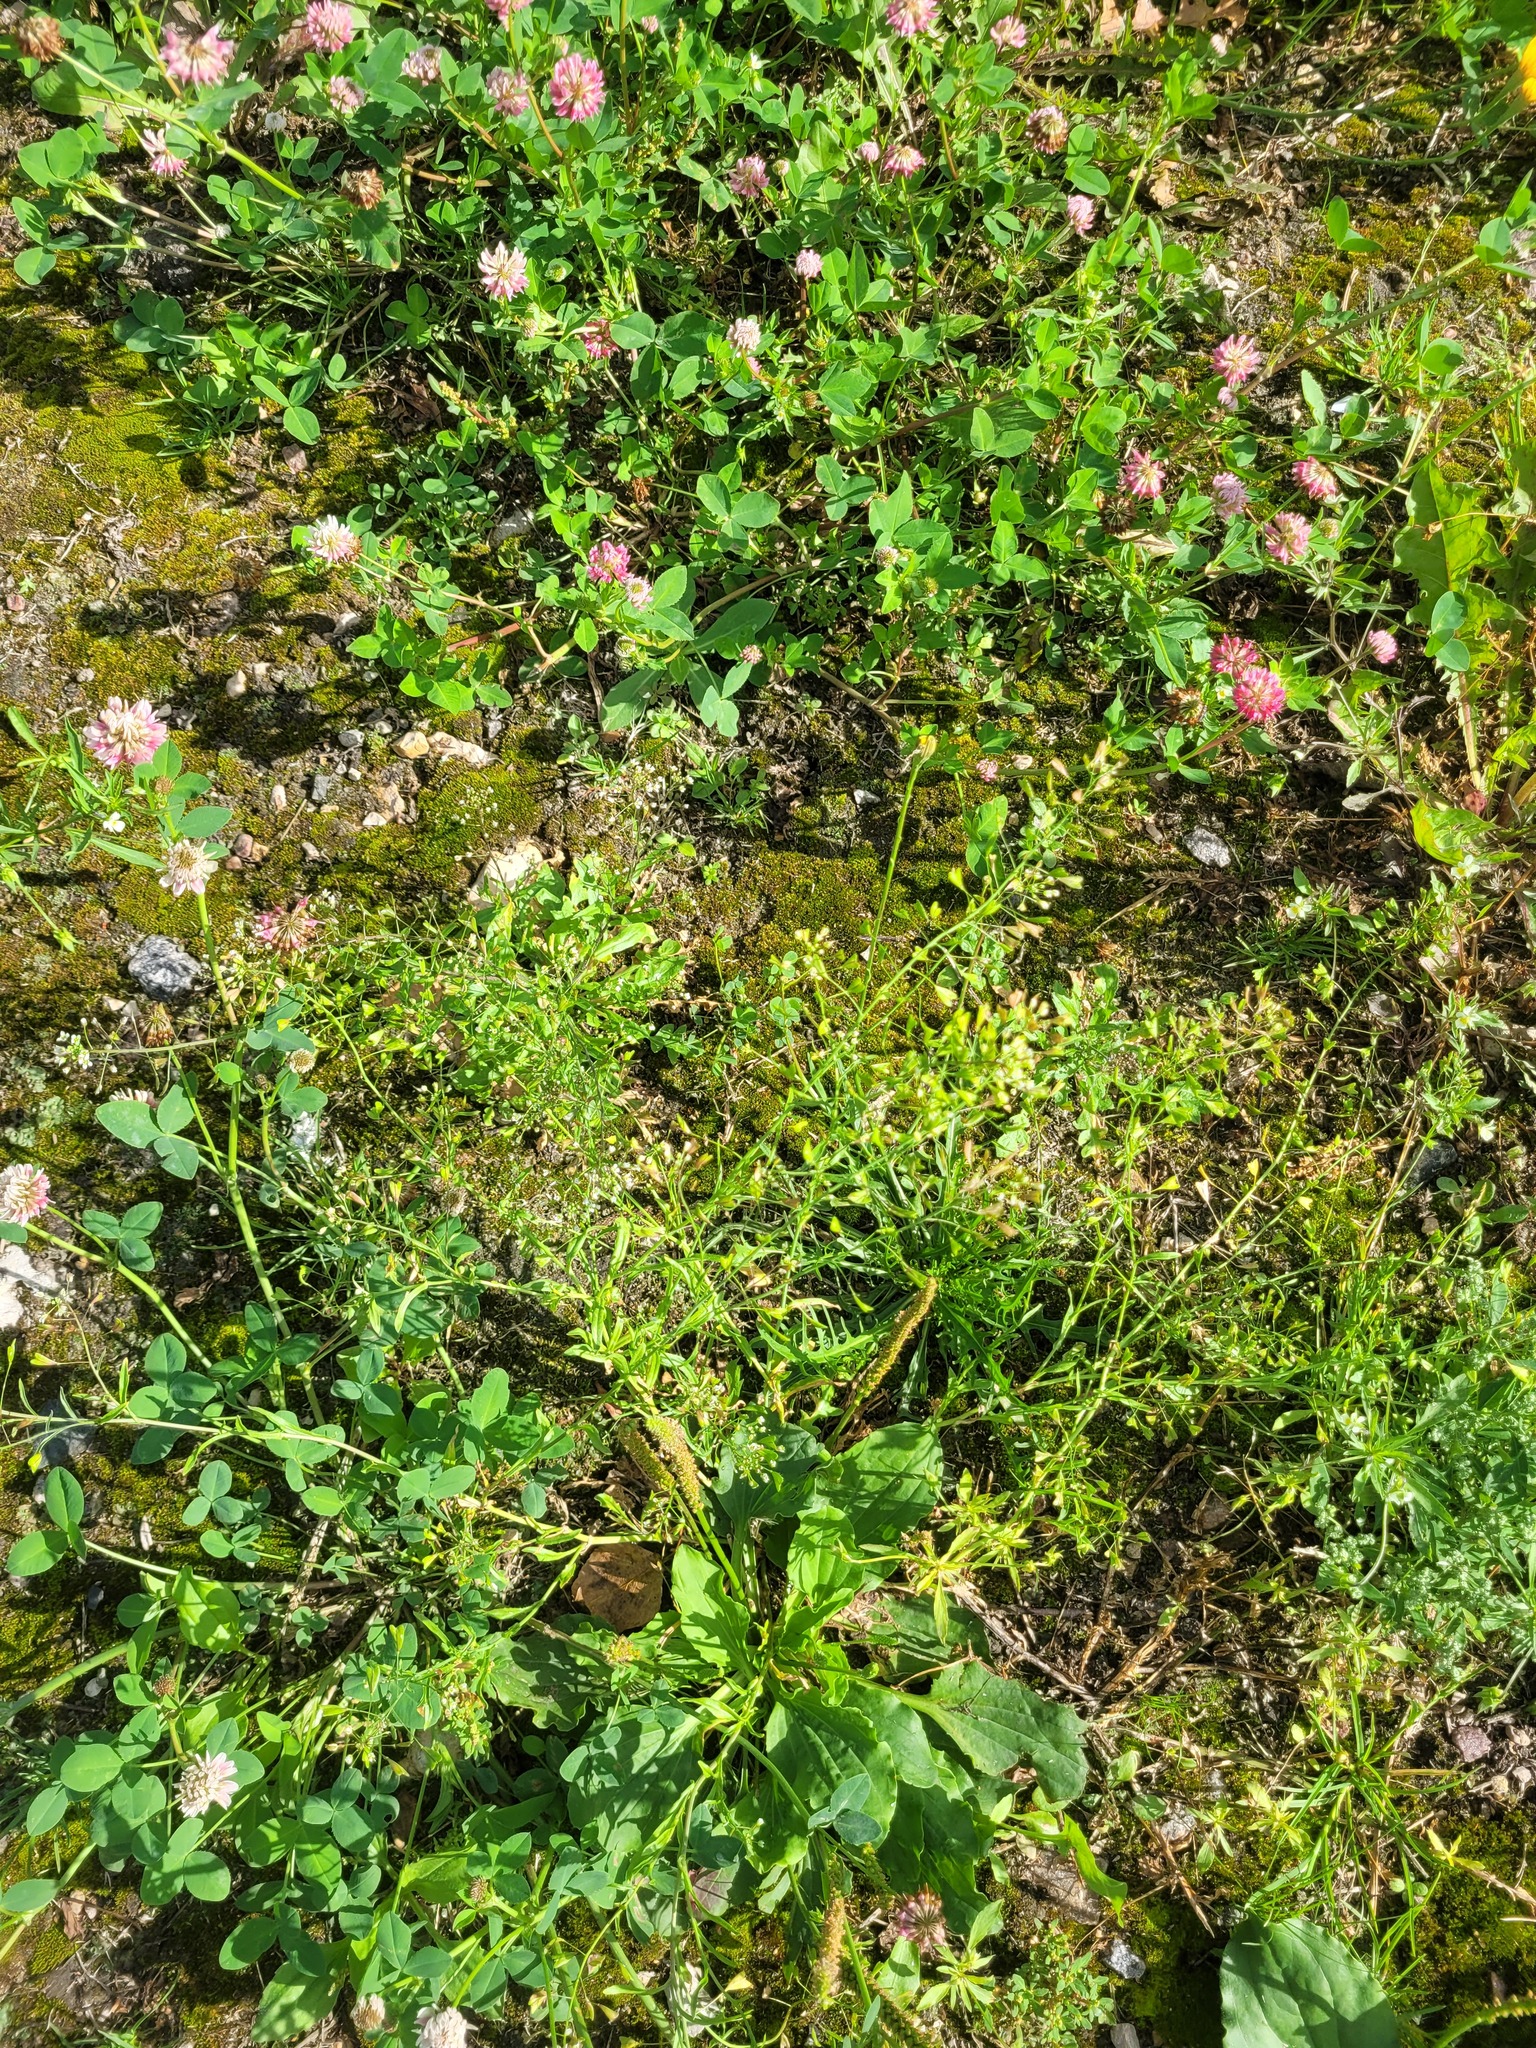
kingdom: Plantae
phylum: Tracheophyta
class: Magnoliopsida
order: Brassicales
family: Brassicaceae
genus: Capsella
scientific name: Capsella bursa-pastoris
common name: Shepherd's purse
